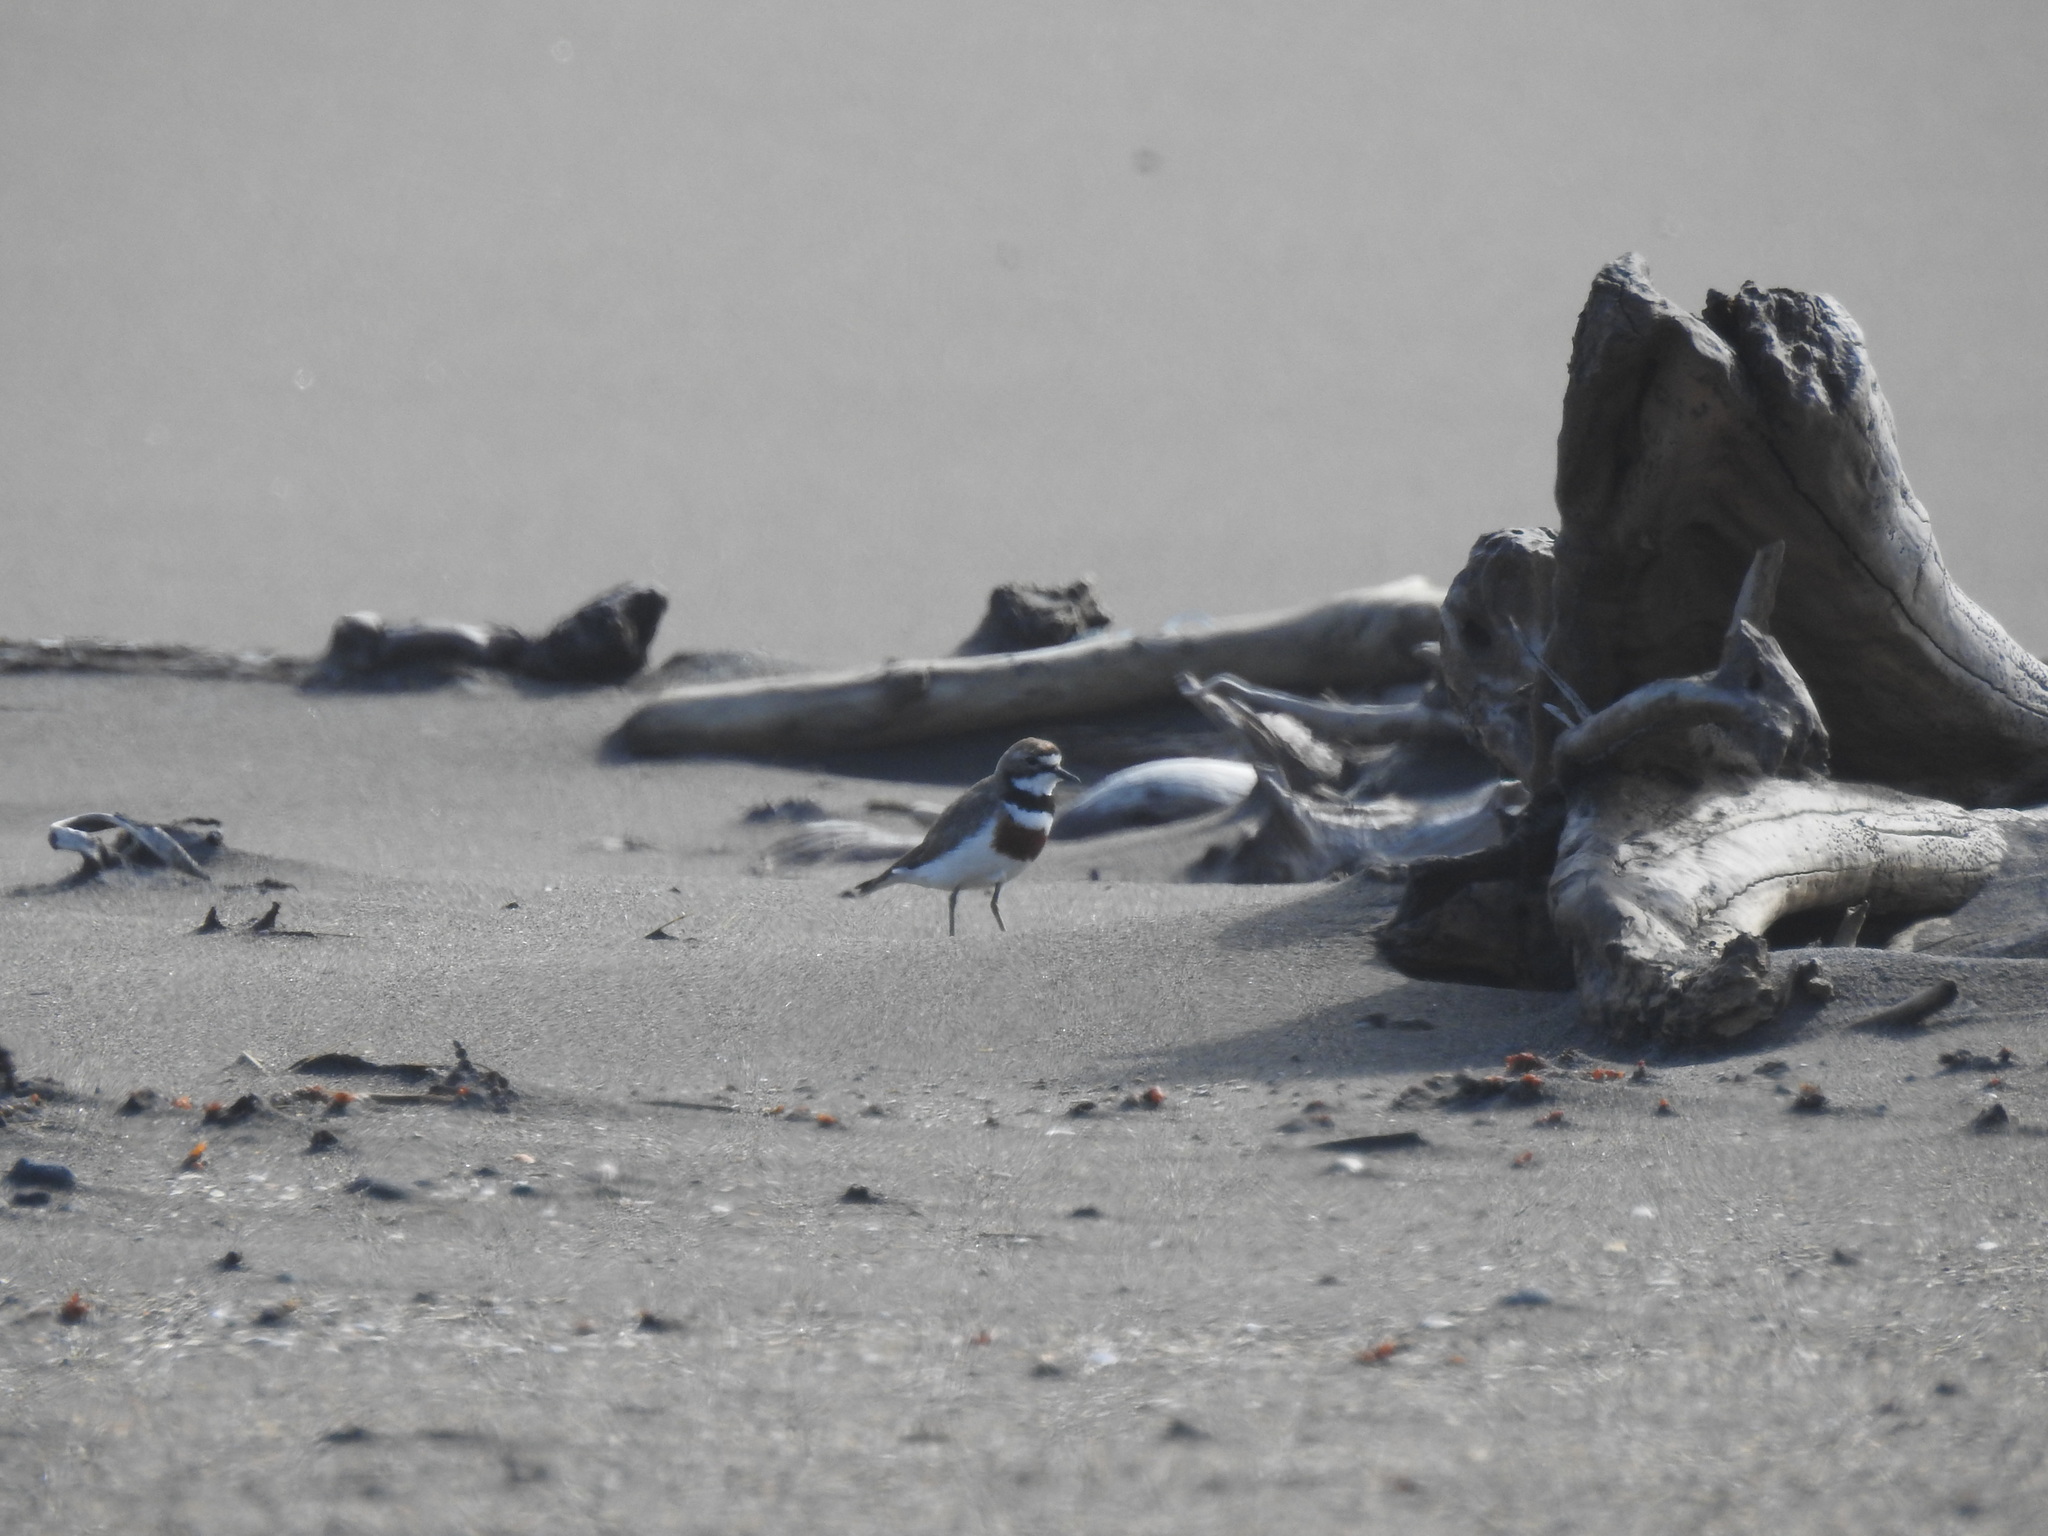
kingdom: Animalia
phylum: Chordata
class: Aves
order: Charadriiformes
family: Charadriidae
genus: Anarhynchus
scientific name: Anarhynchus
